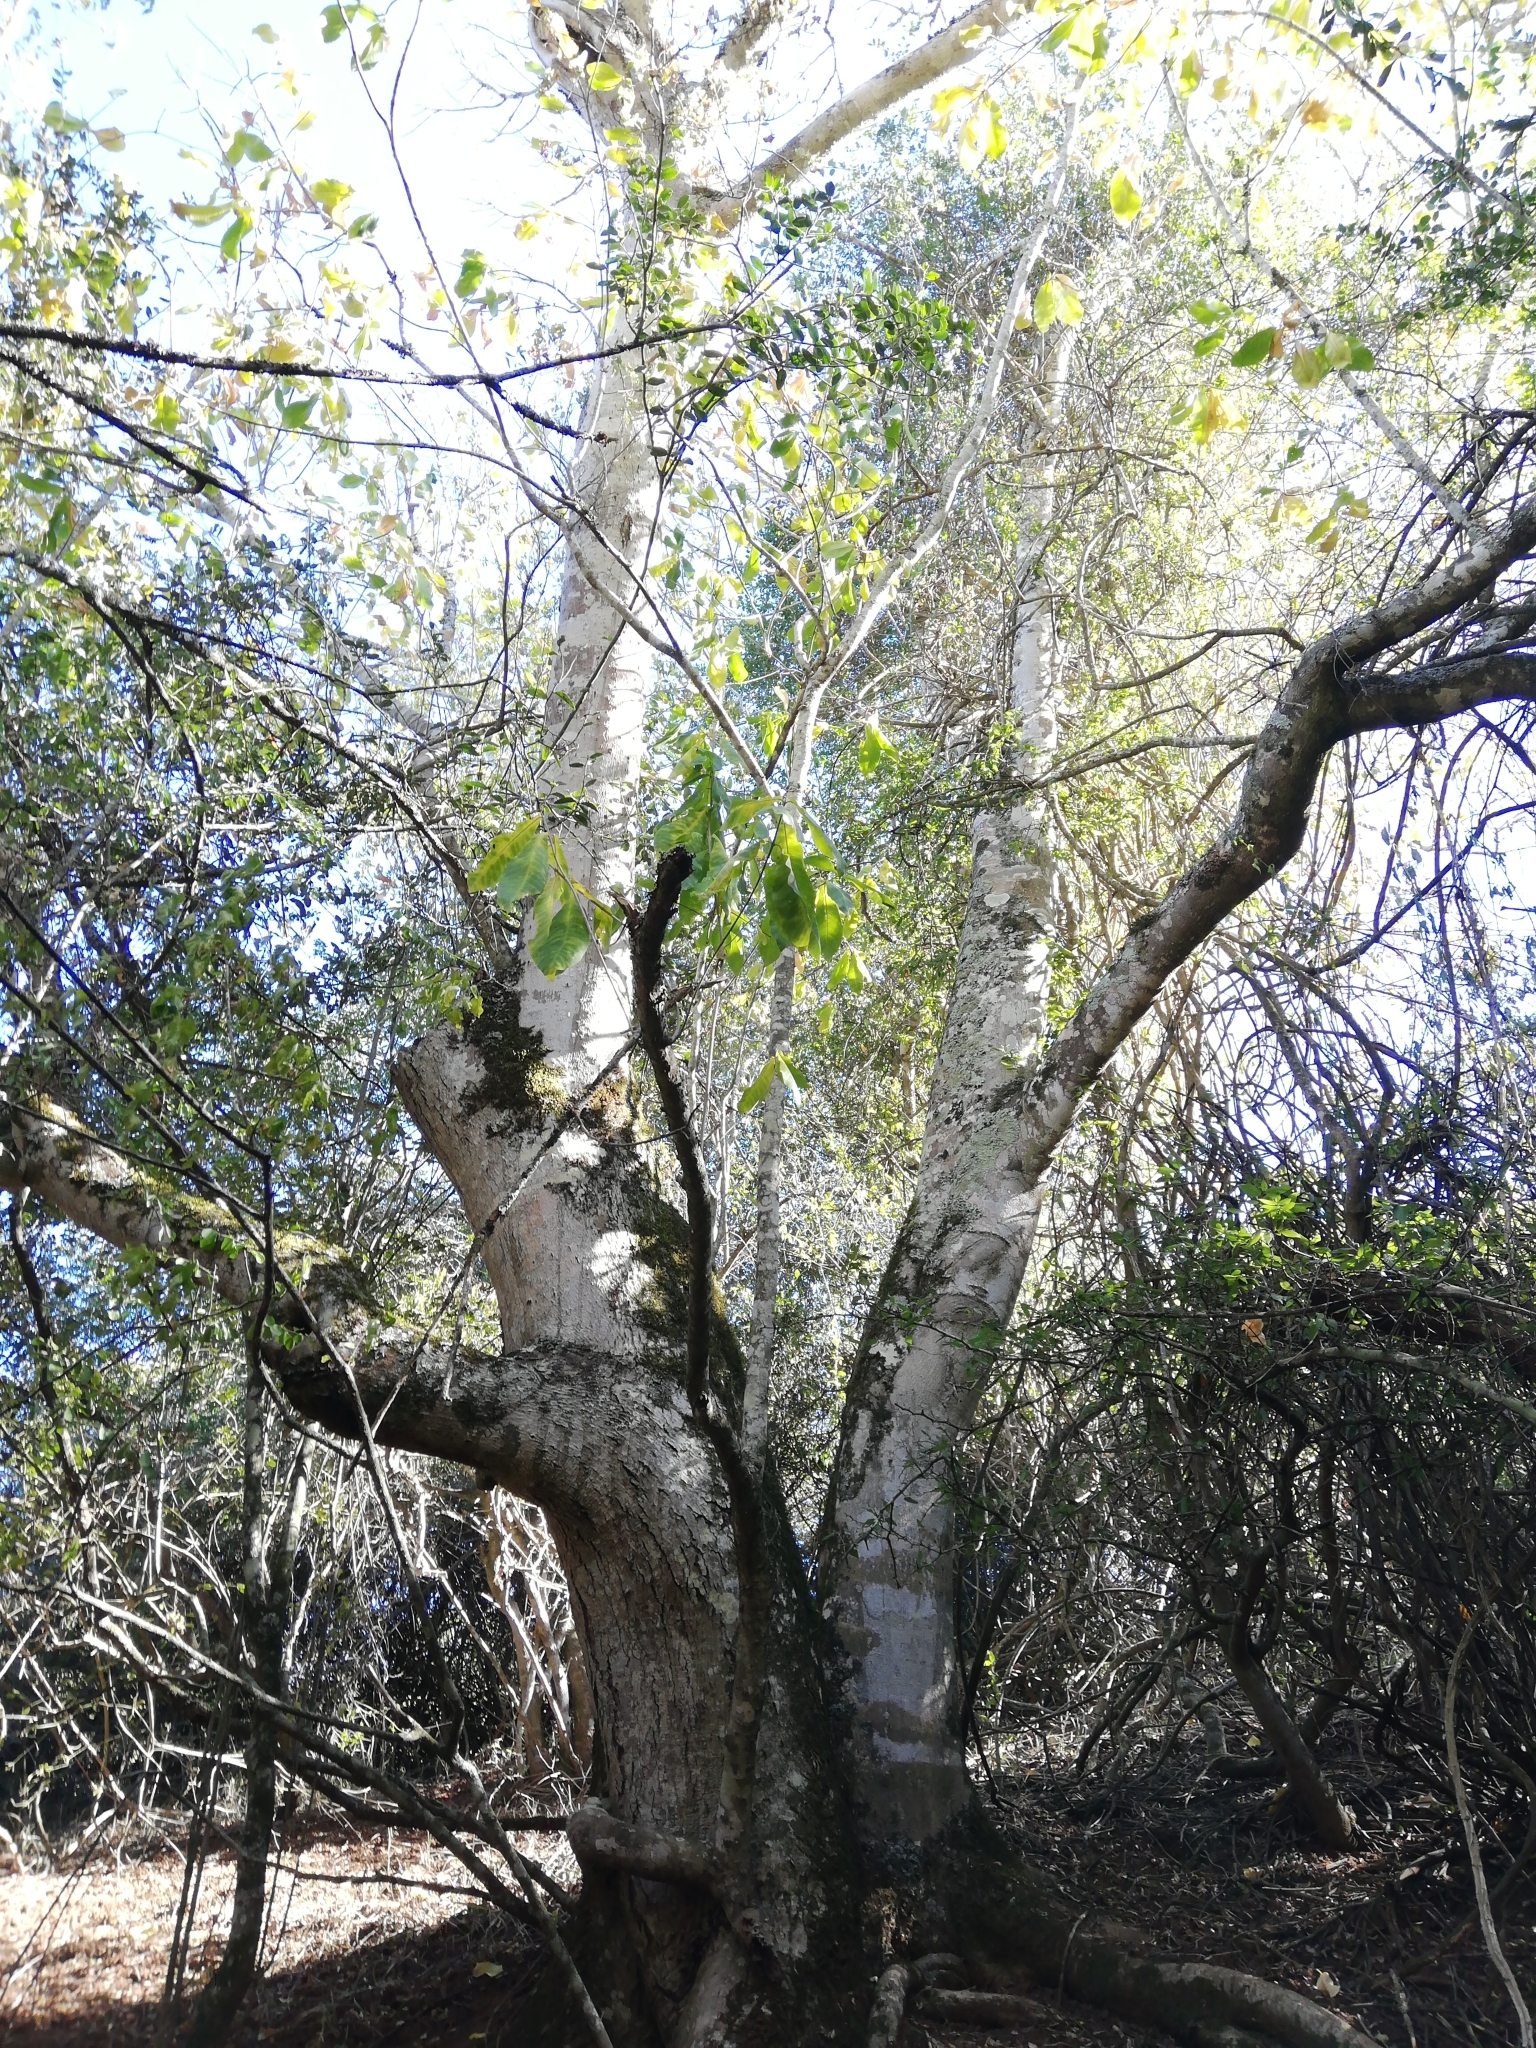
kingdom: Plantae
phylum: Tracheophyta
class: Magnoliopsida
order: Sapindales
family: Rutaceae
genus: Calodendrum
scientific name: Calodendrum capense
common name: Cape chestnut
